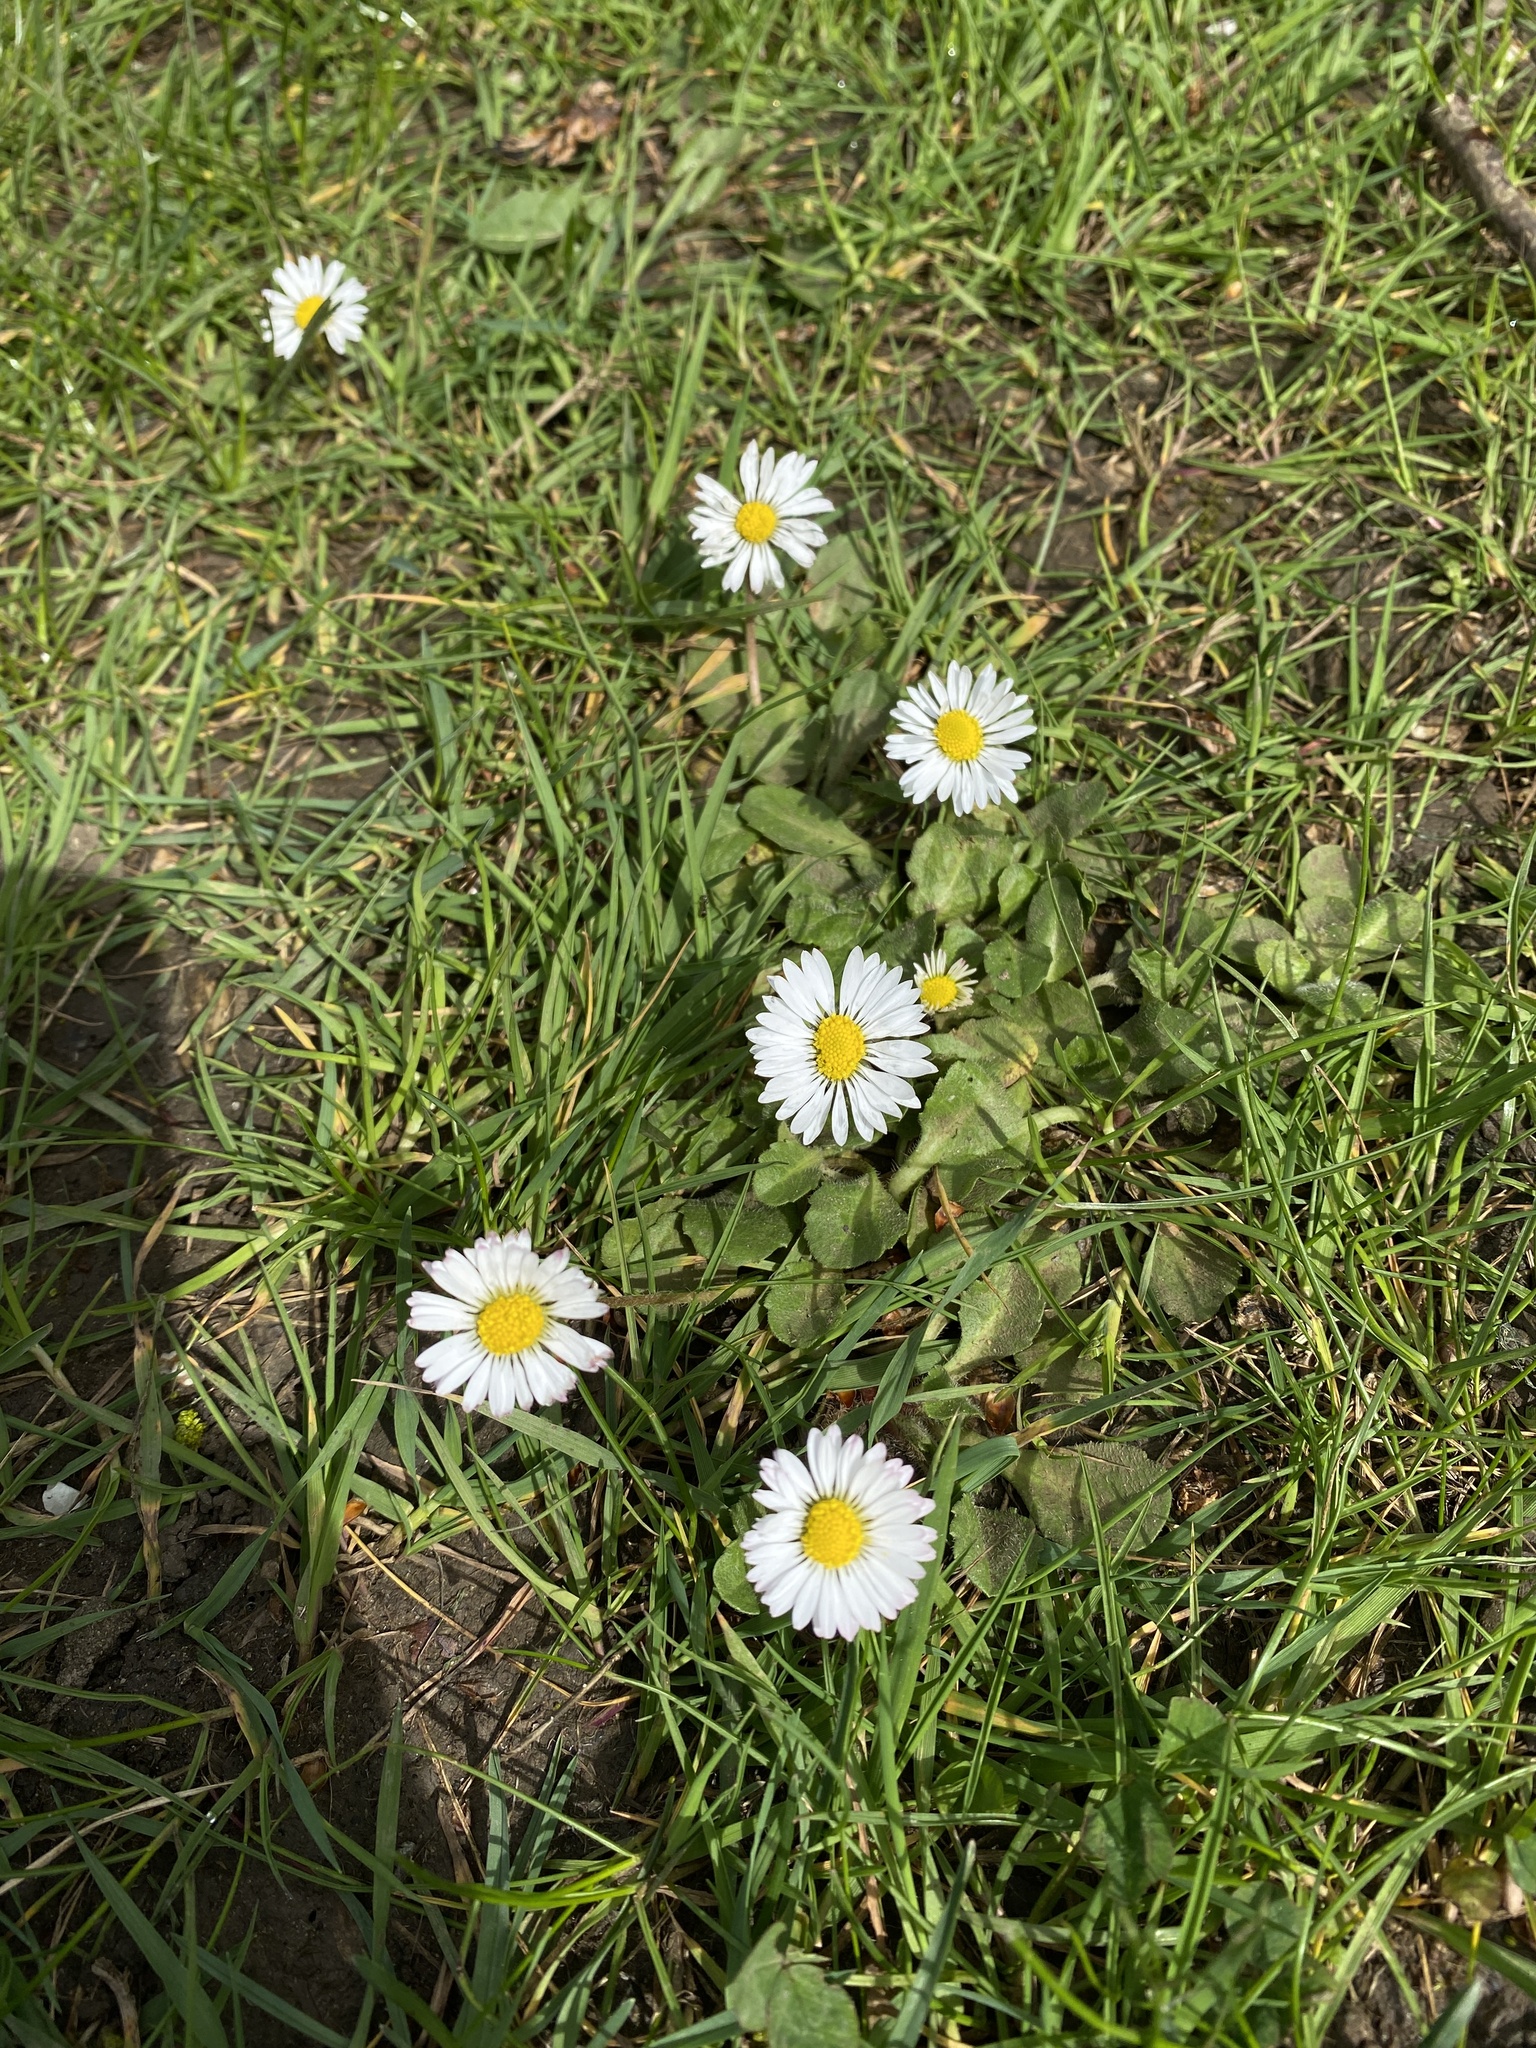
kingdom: Plantae
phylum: Tracheophyta
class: Magnoliopsida
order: Asterales
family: Asteraceae
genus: Bellis
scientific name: Bellis perennis
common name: Lawndaisy
